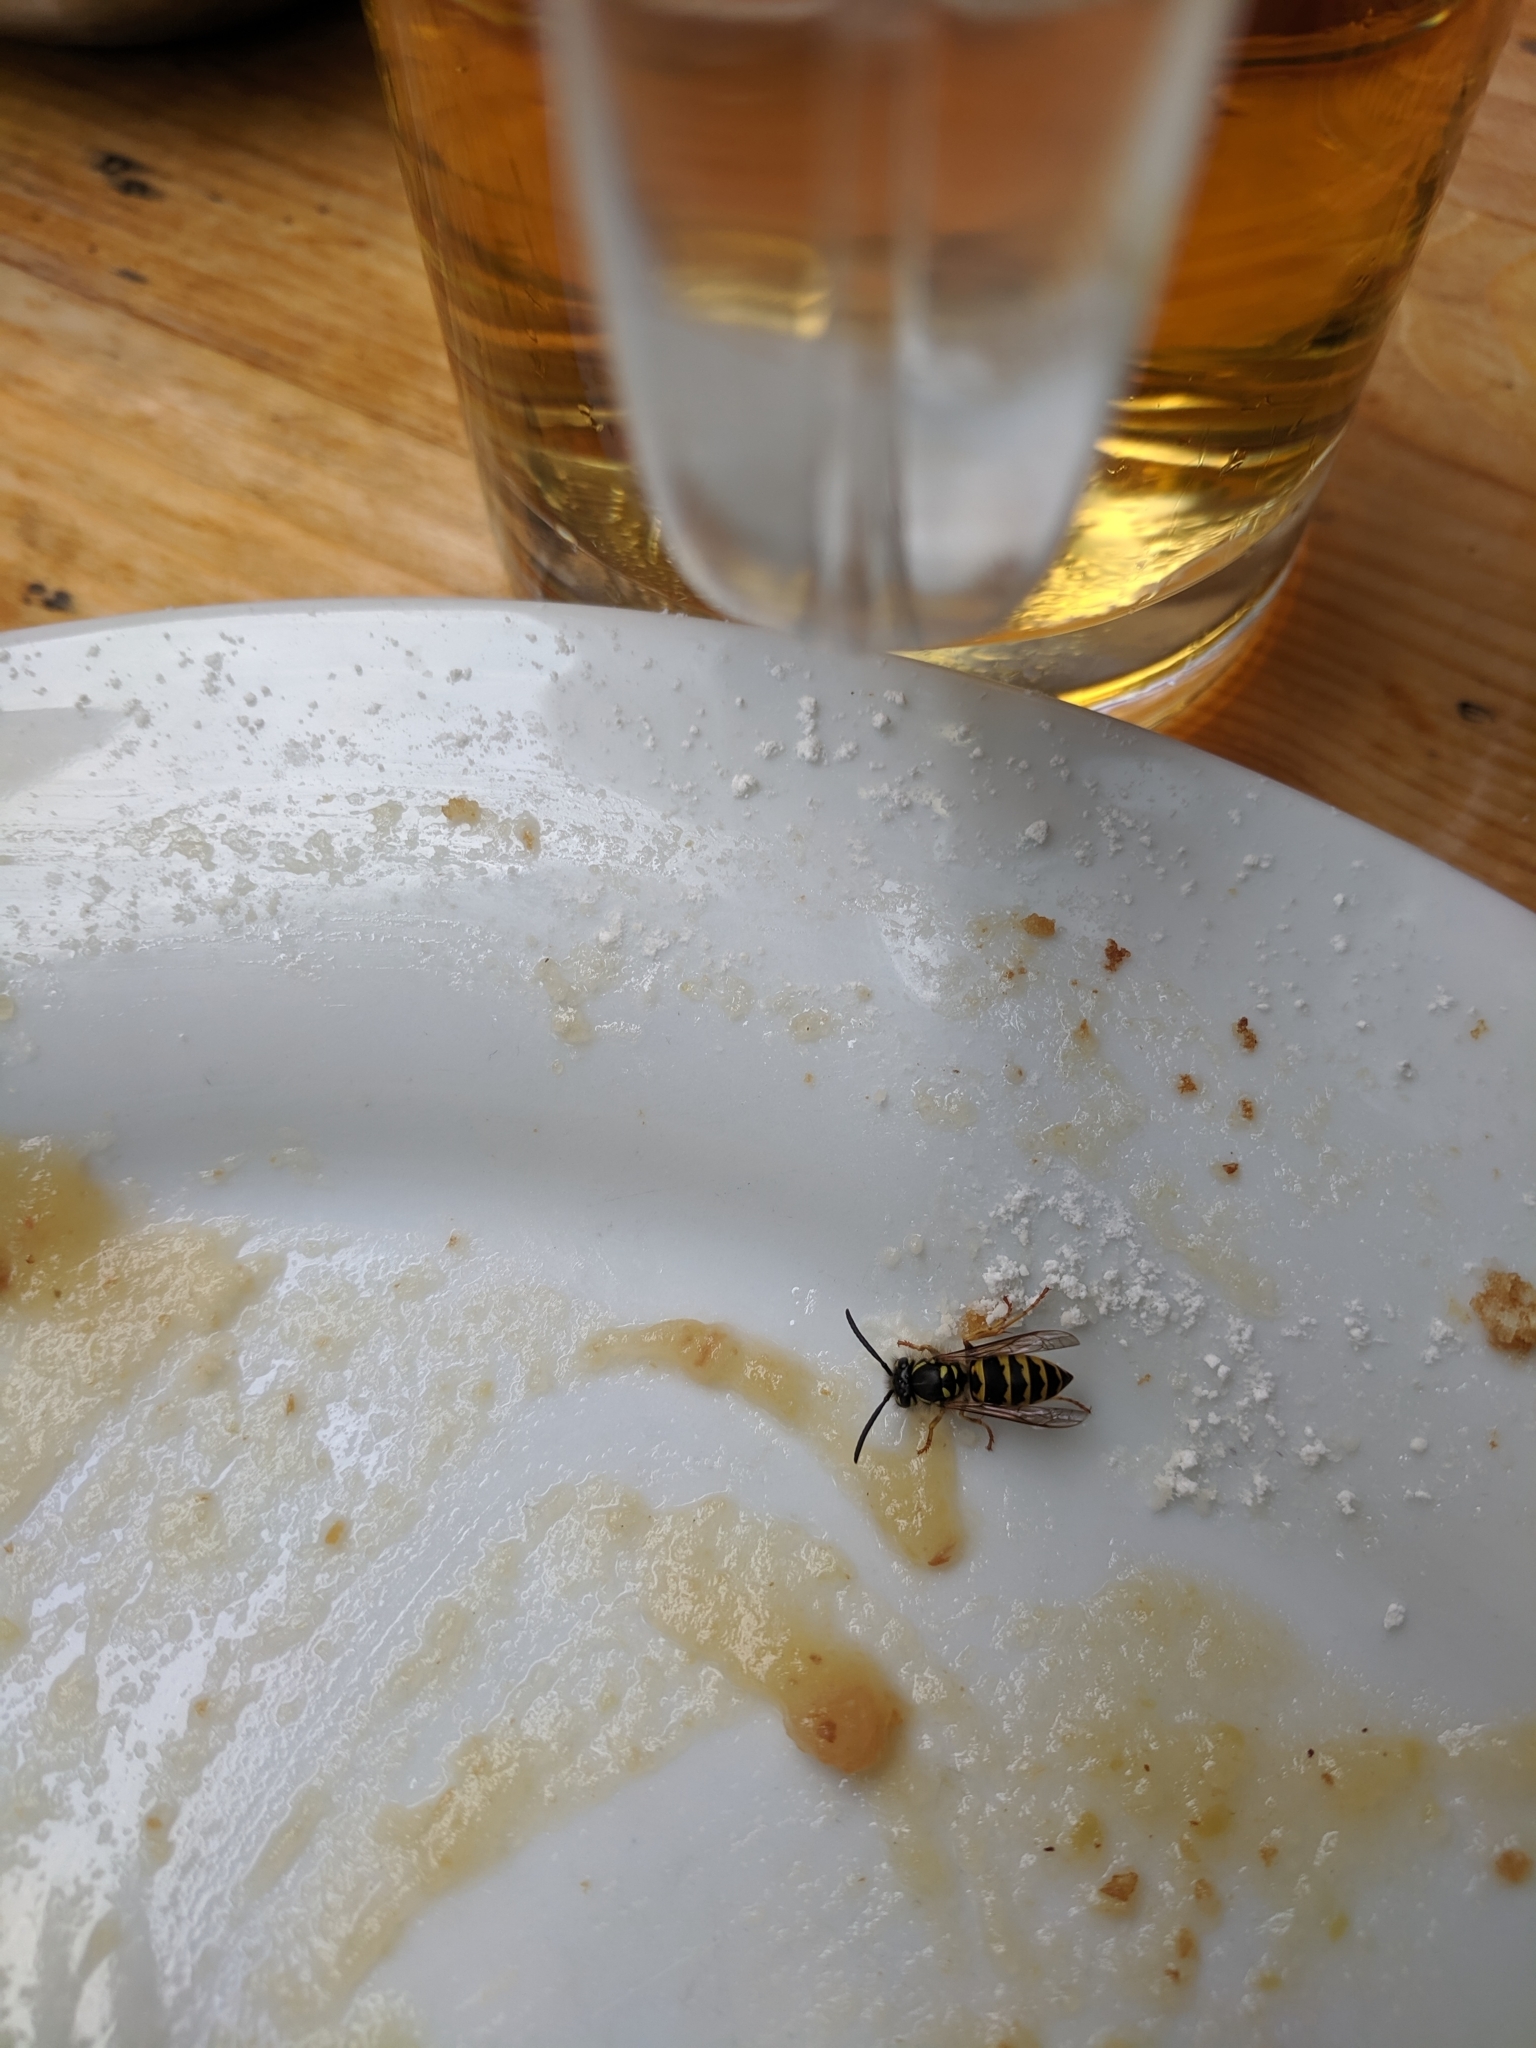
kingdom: Animalia
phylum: Arthropoda
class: Insecta
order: Hymenoptera
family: Vespidae
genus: Vespula
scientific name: Vespula vulgaris
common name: Common wasp
